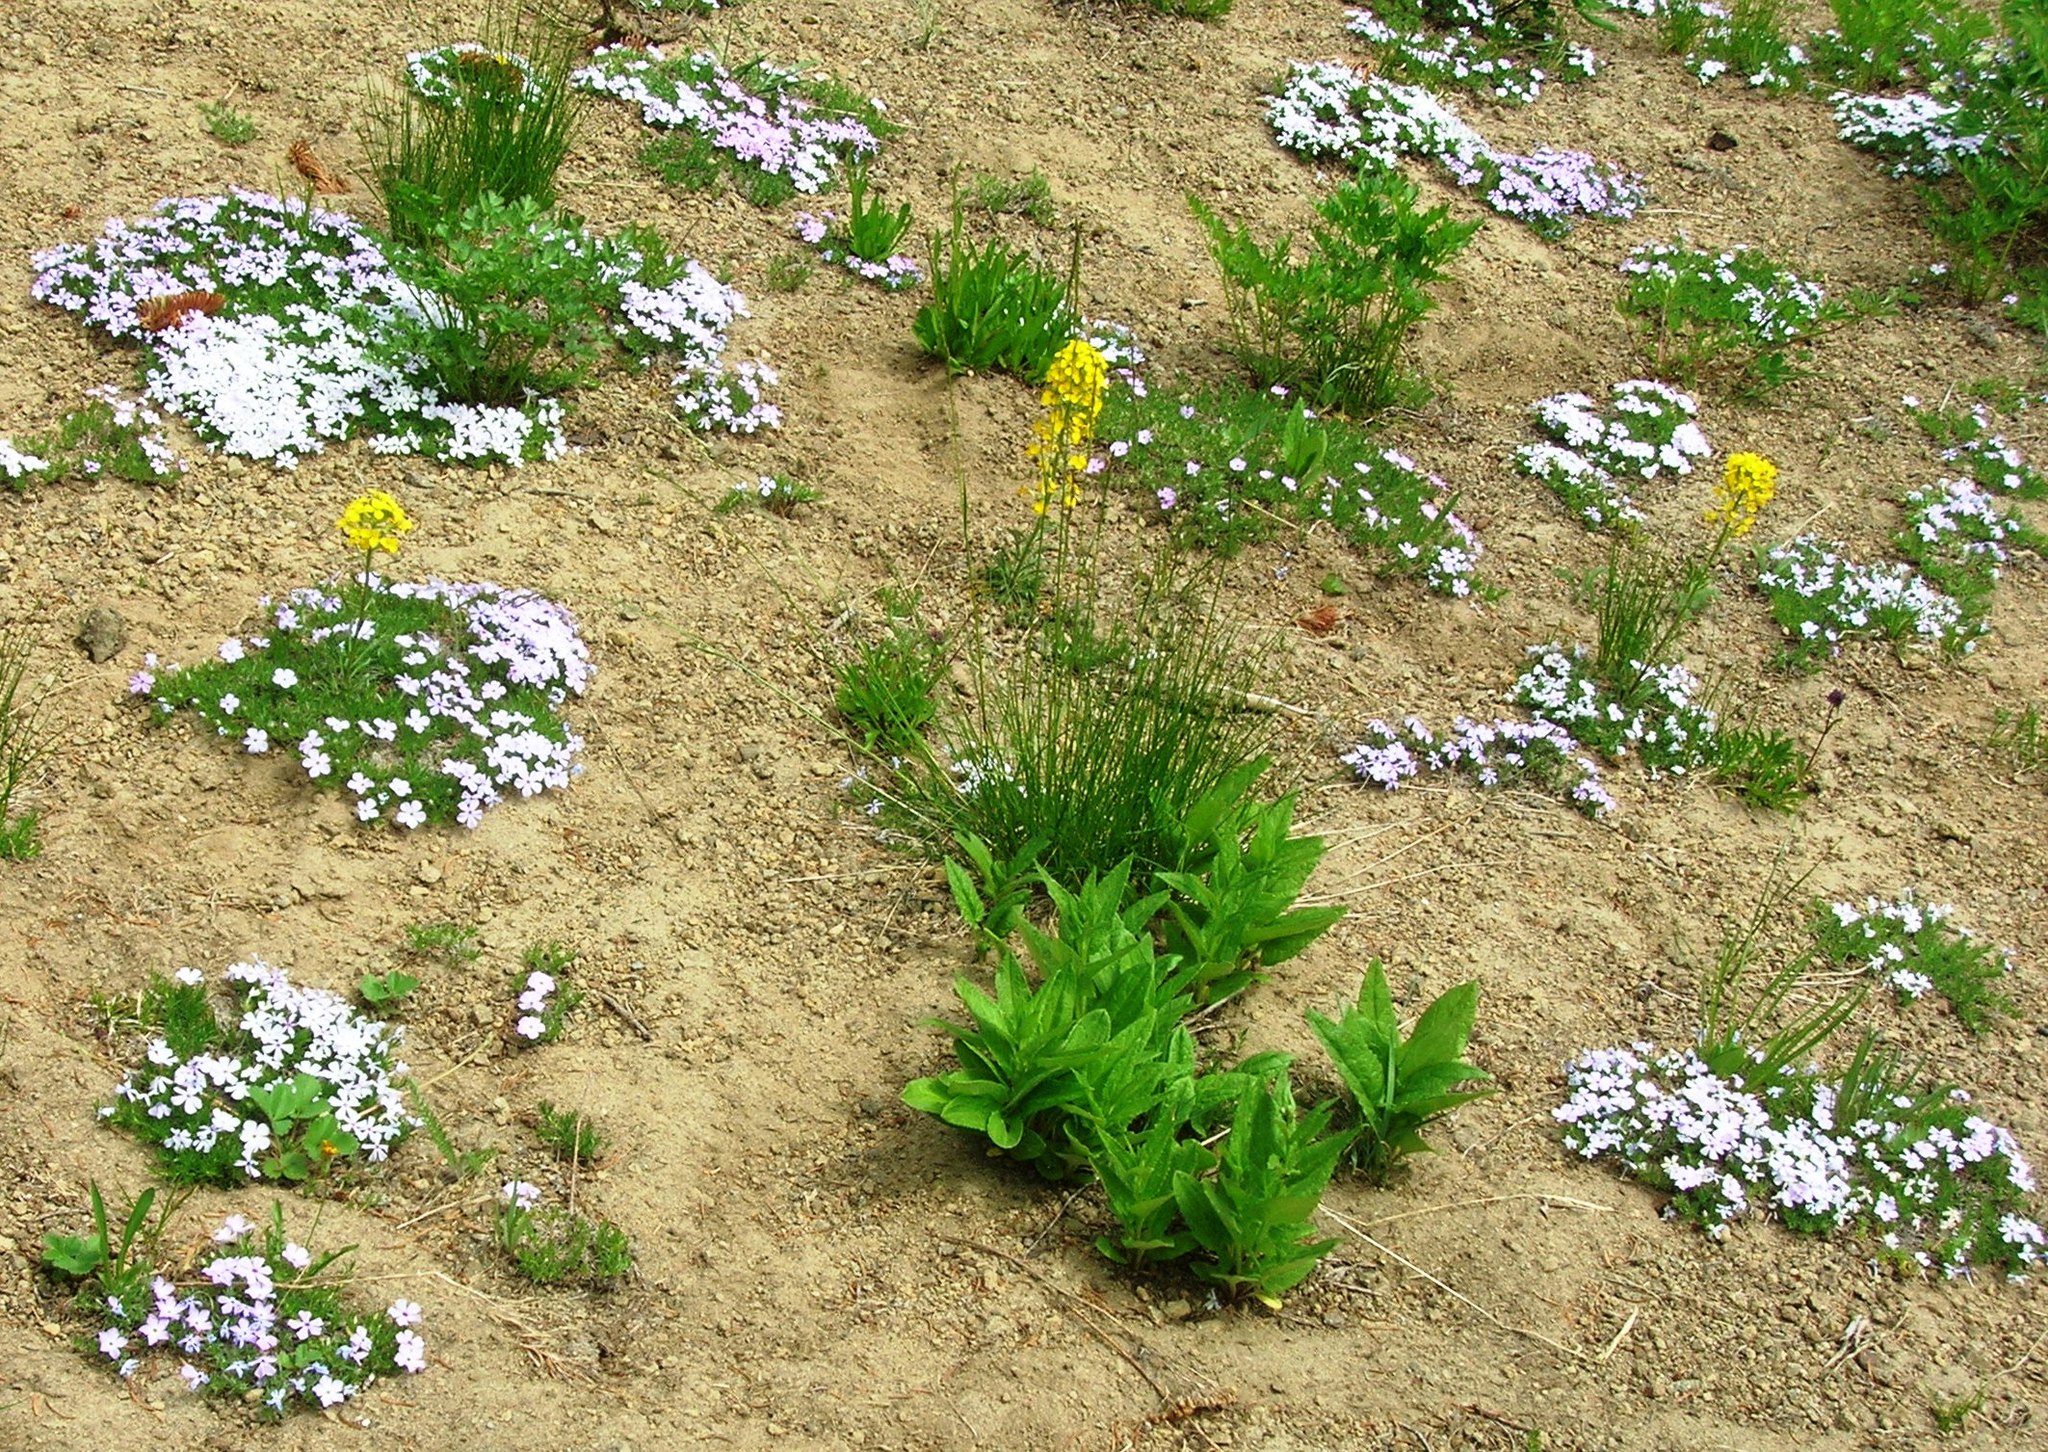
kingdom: Plantae
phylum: Tracheophyta
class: Magnoliopsida
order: Brassicales
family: Brassicaceae
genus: Erysimum
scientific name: Erysimum arenicola
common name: Cascade wallflower
